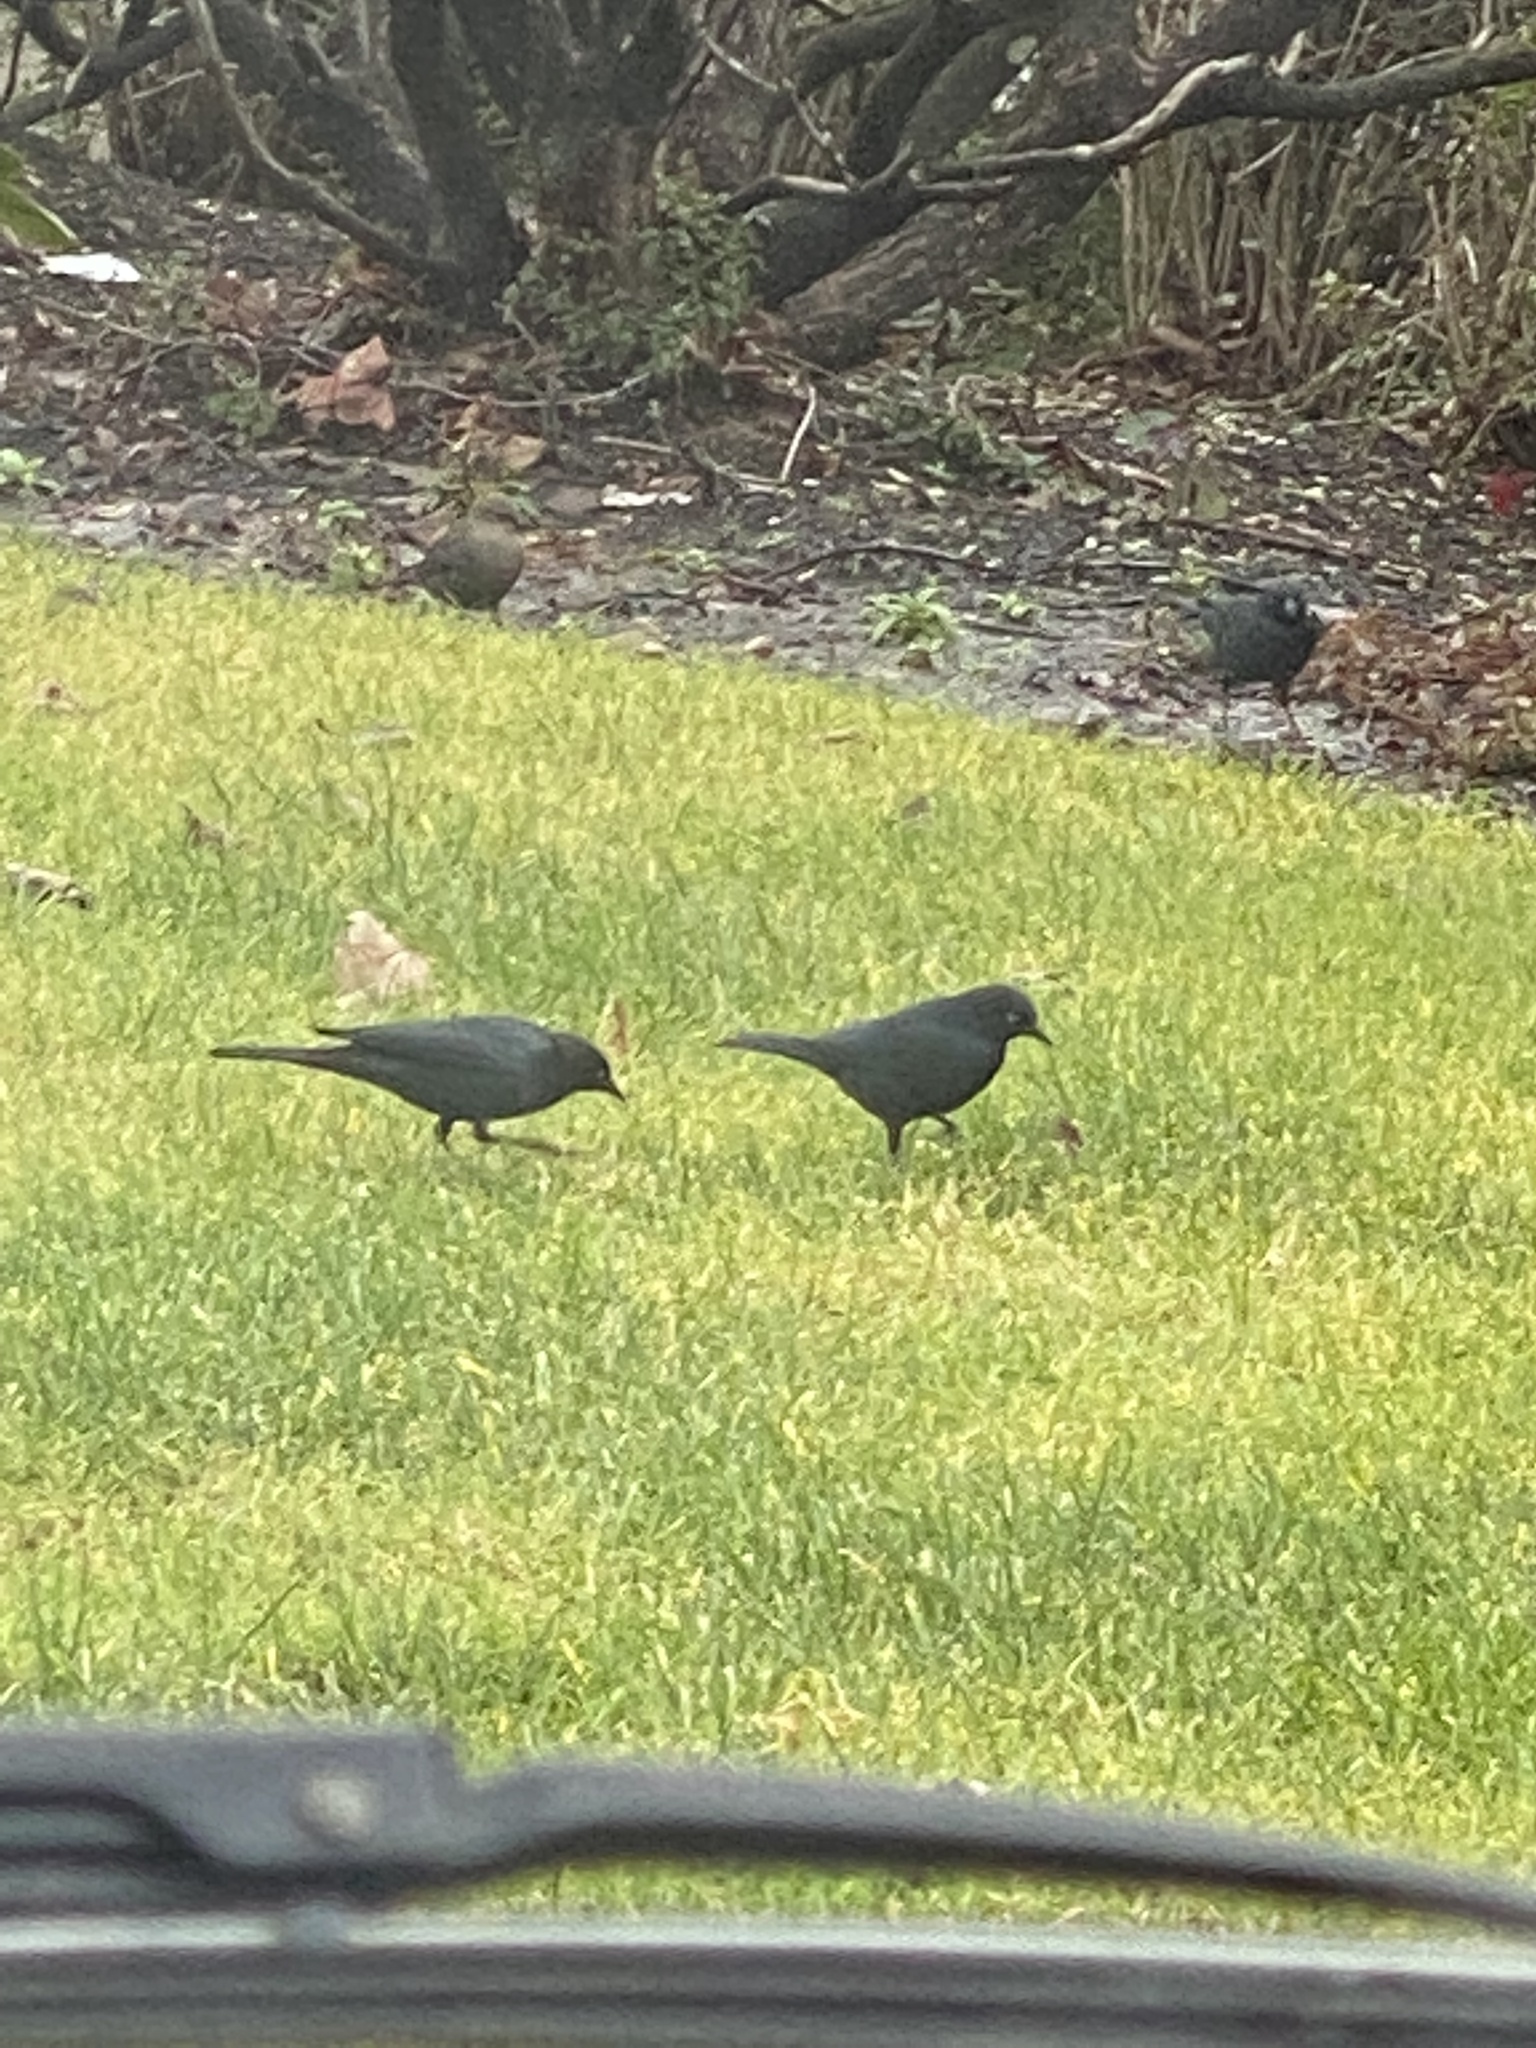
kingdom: Animalia
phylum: Chordata
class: Aves
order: Passeriformes
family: Icteridae
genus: Euphagus
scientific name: Euphagus cyanocephalus
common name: Brewer's blackbird
